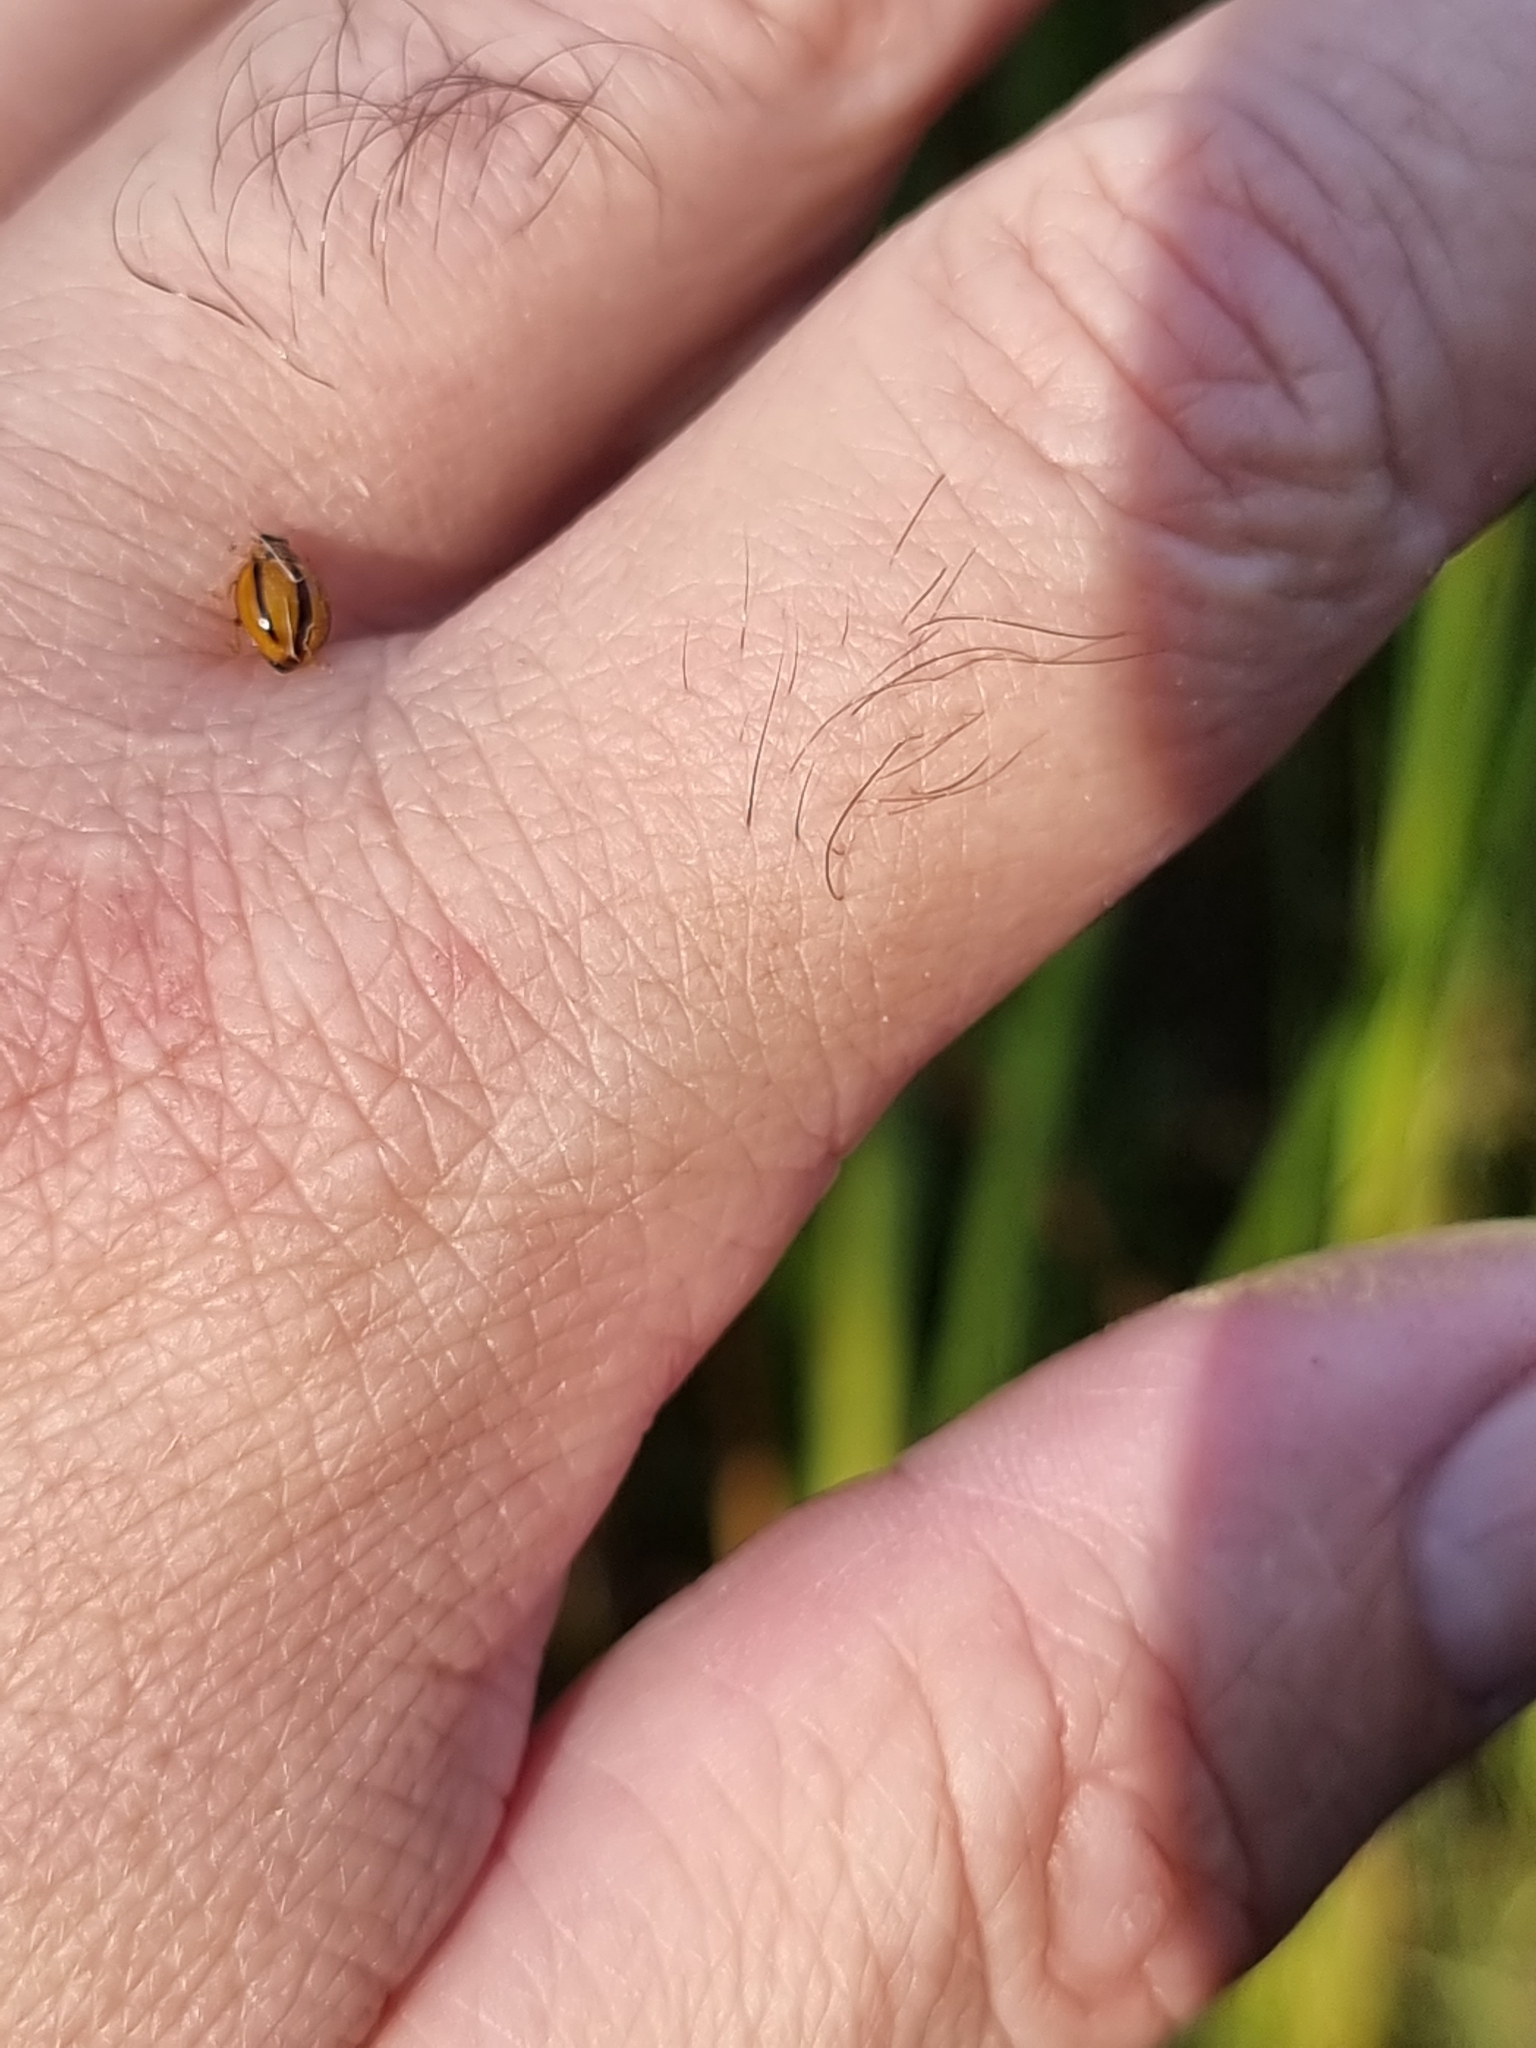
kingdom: Animalia
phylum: Arthropoda
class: Insecta
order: Coleoptera
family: Coccinellidae
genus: Micraspis
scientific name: Micraspis lineola
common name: Lady beetle
